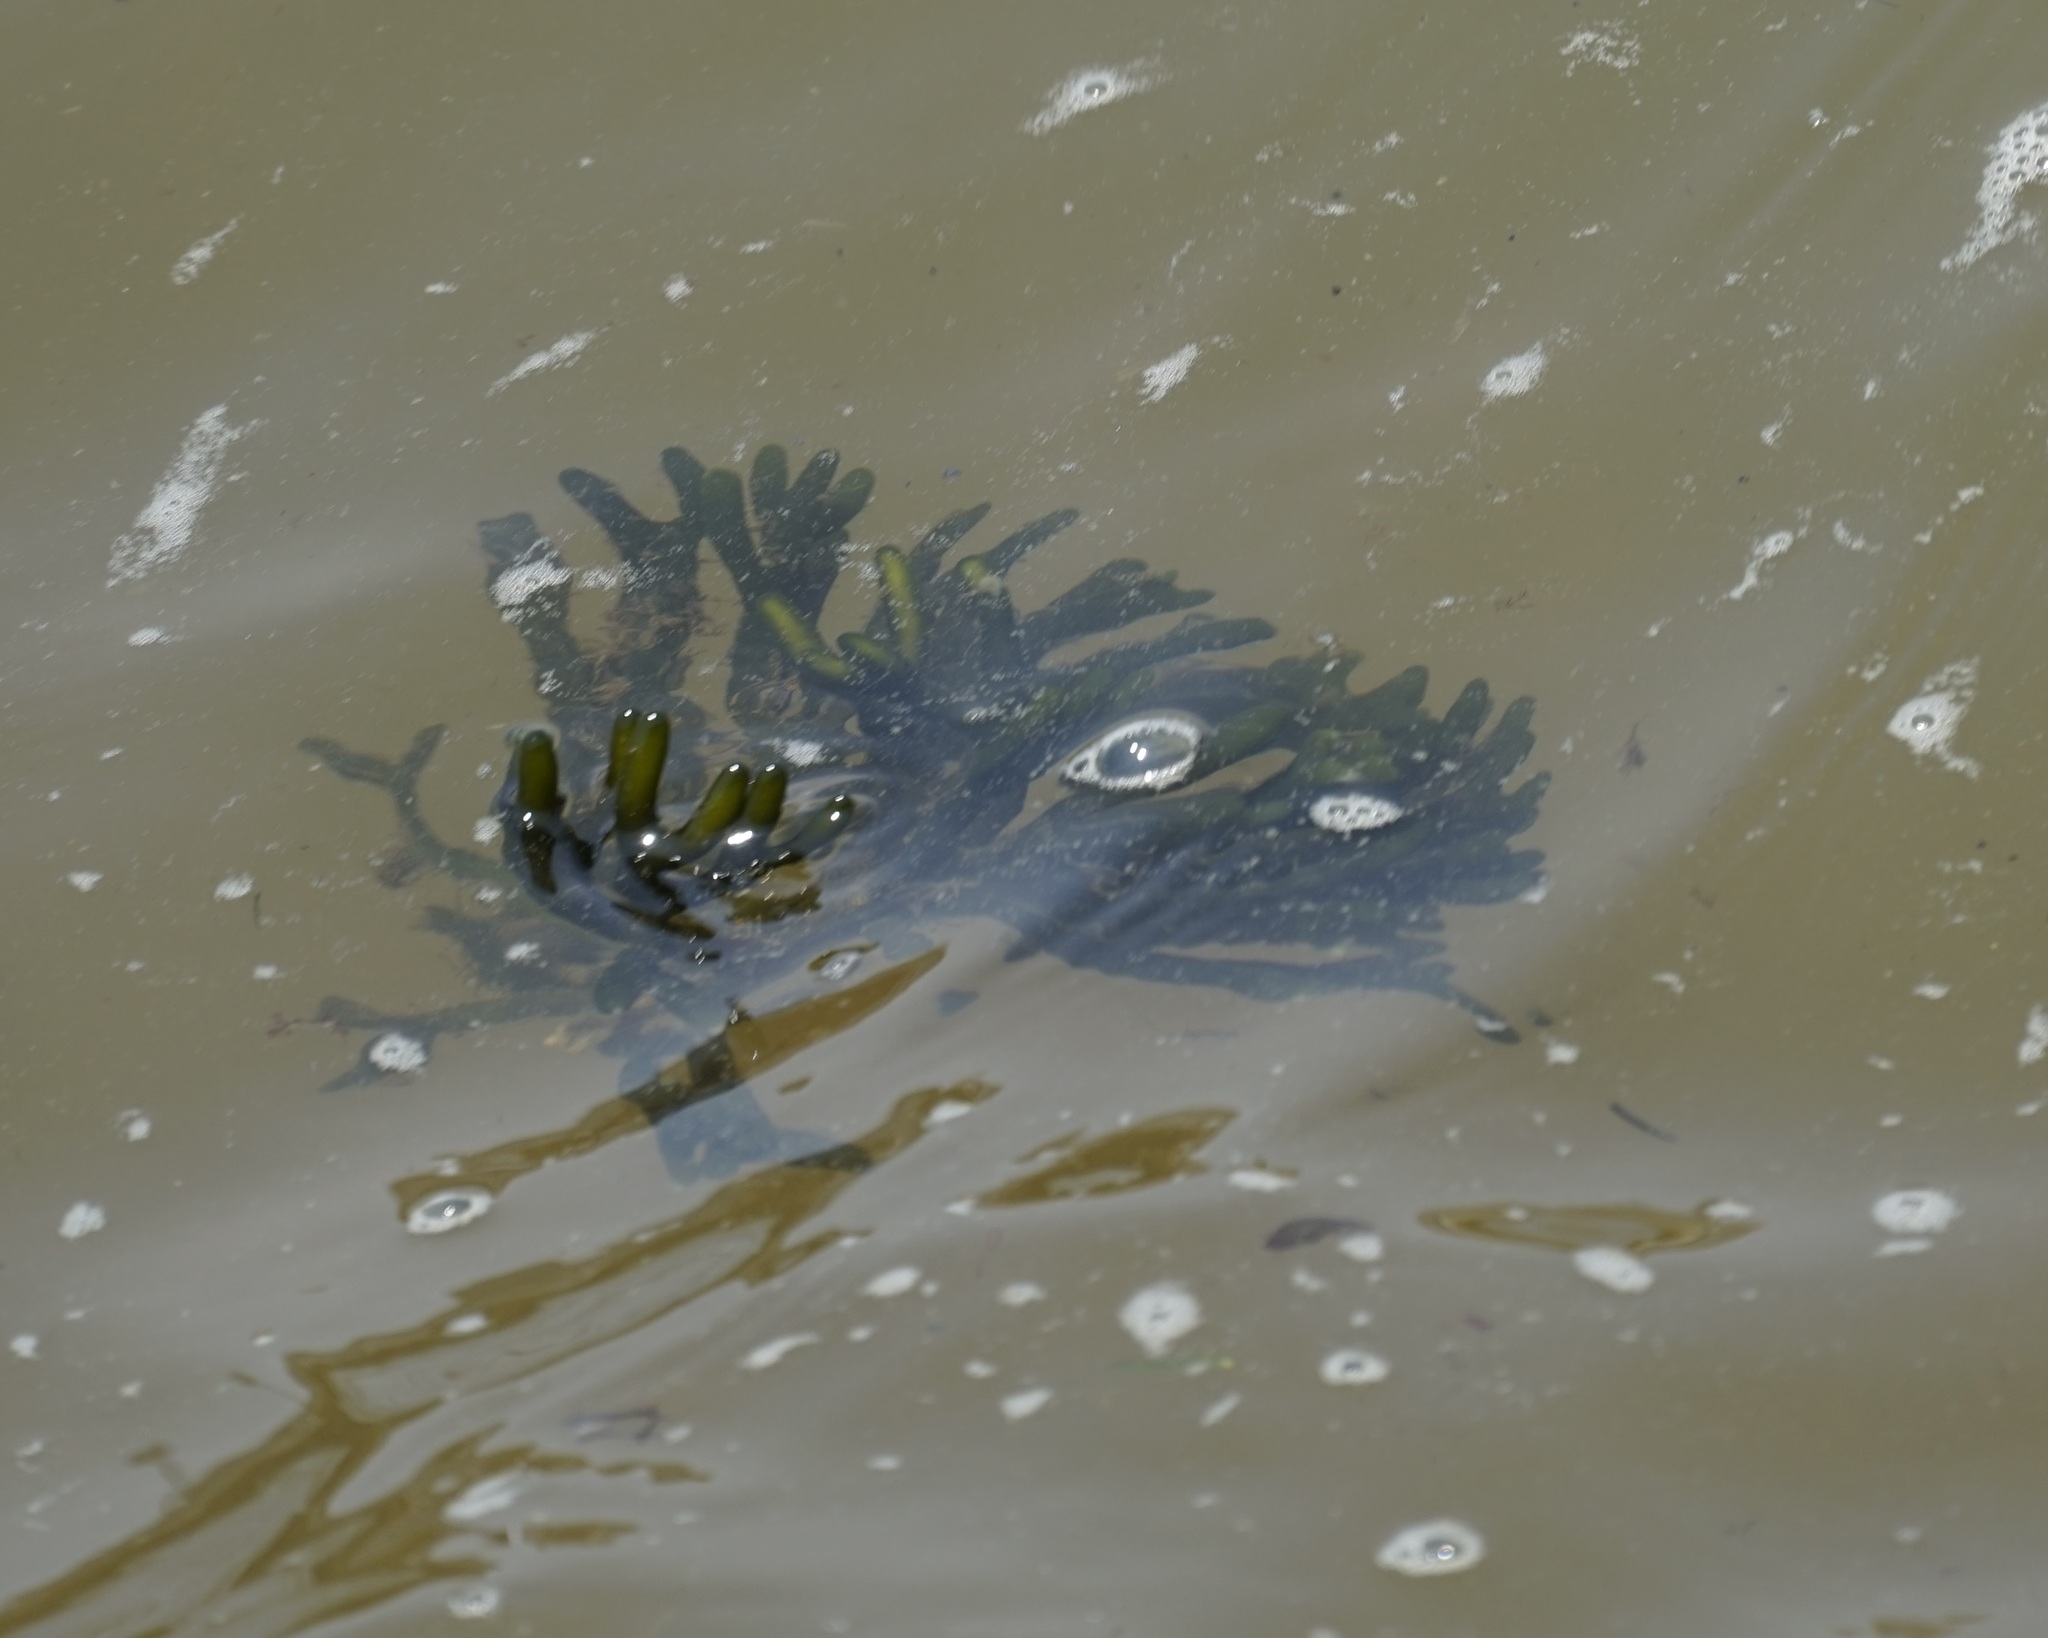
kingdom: Plantae
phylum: Chlorophyta
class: Ulvophyceae
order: Bryopsidales
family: Codiaceae
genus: Codium
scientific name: Codium fragile
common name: Dead man's fingers
